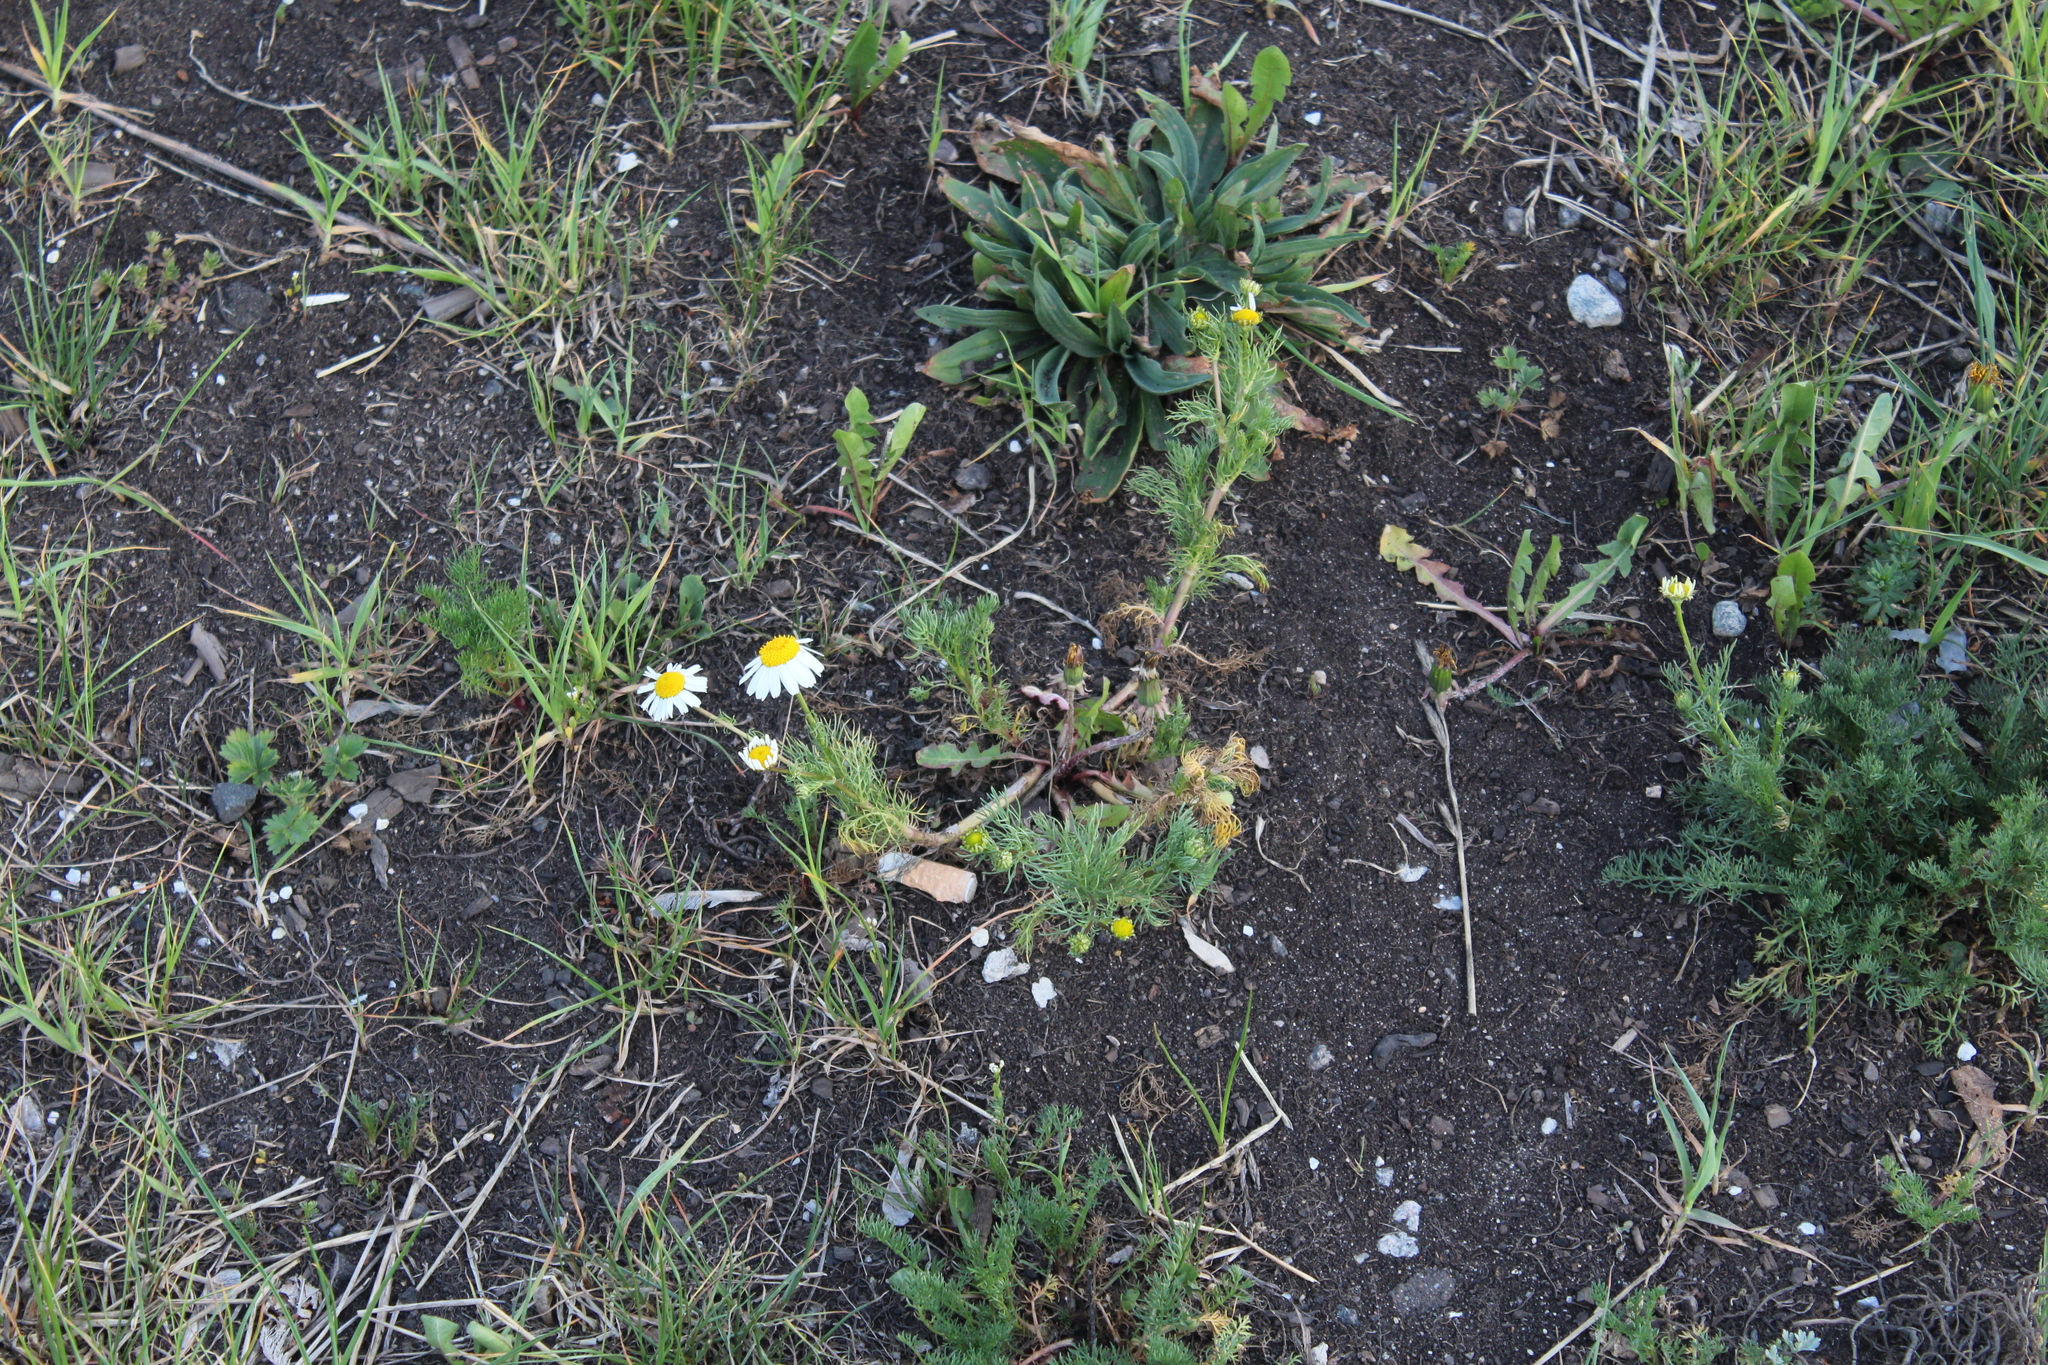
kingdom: Plantae
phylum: Tracheophyta
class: Magnoliopsida
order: Asterales
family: Asteraceae
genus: Tripleurospermum
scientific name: Tripleurospermum inodorum
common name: Scentless mayweed
